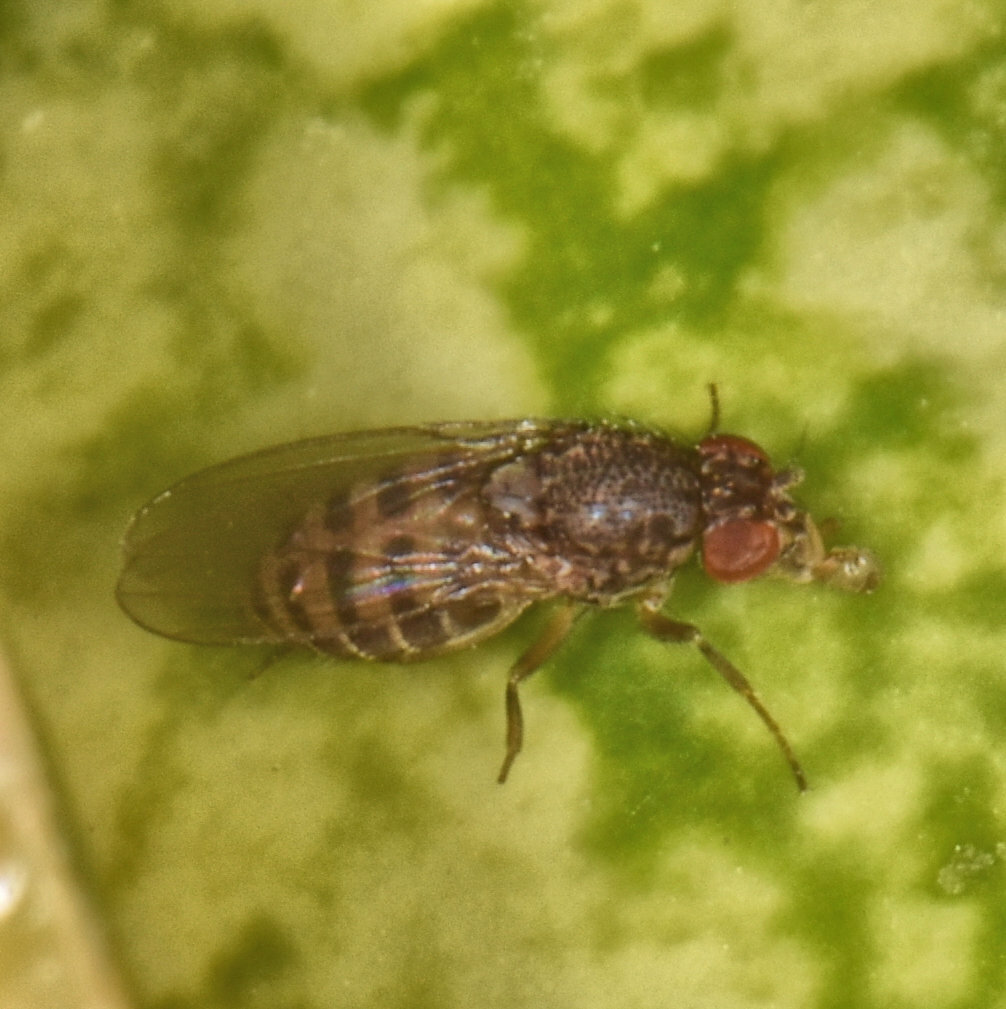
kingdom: Animalia
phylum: Arthropoda
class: Insecta
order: Diptera
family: Drosophilidae
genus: Drosophila
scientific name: Drosophila hydei
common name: Pomace fly
